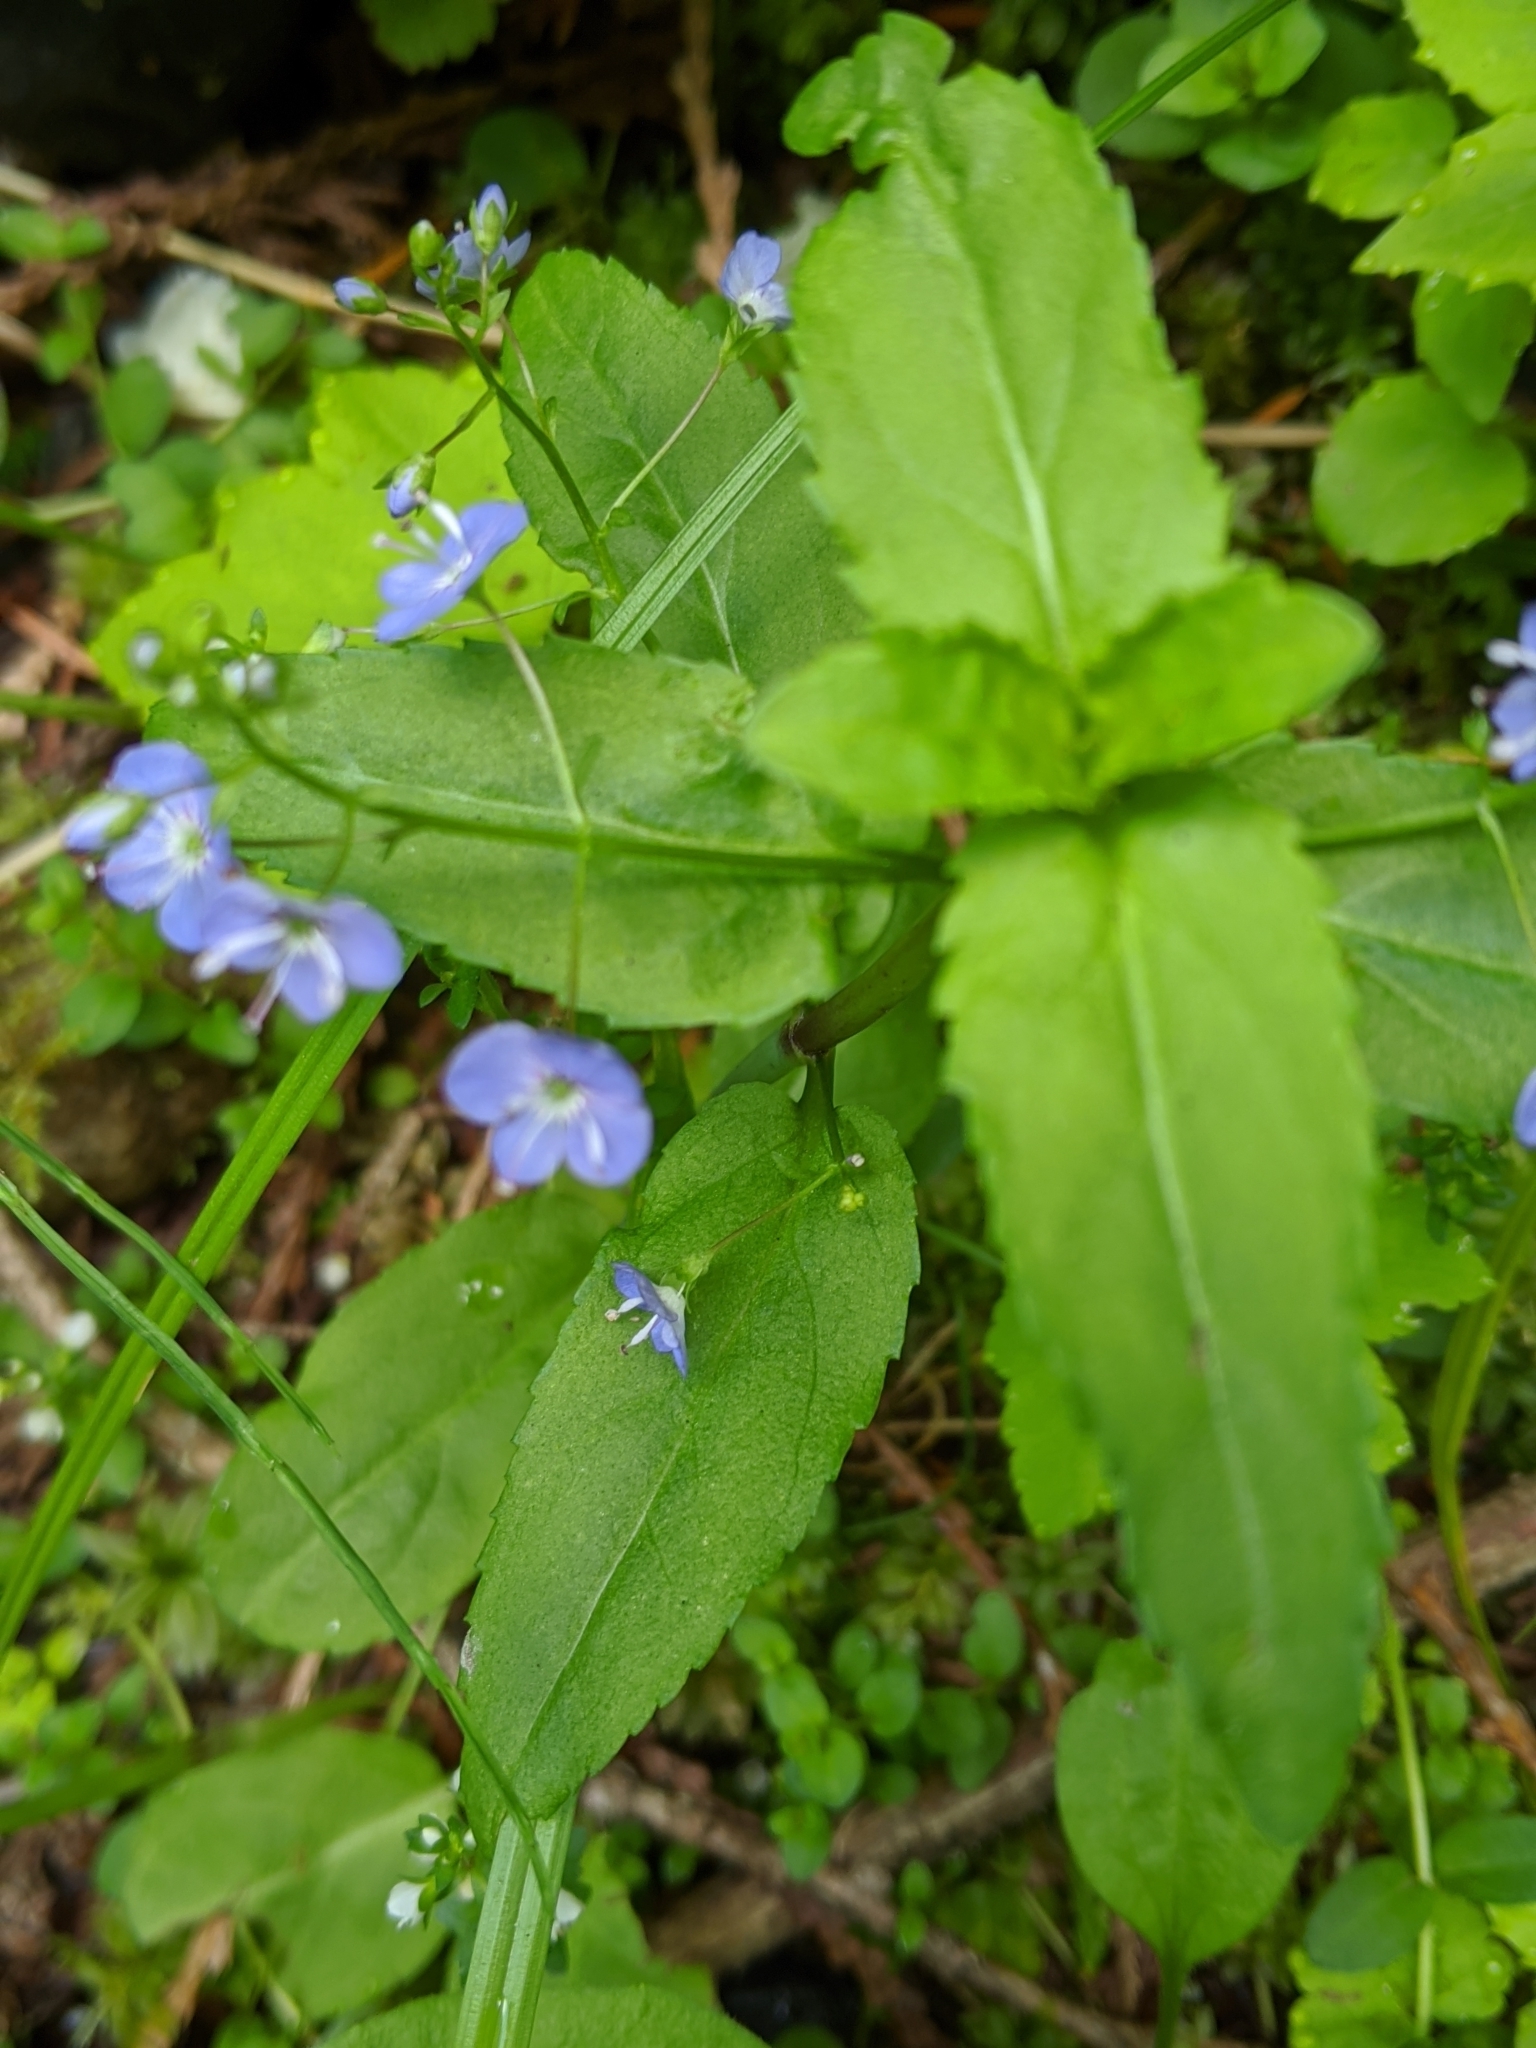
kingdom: Plantae
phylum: Tracheophyta
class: Magnoliopsida
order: Lamiales
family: Plantaginaceae
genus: Veronica
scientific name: Veronica americana
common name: American brooklime
